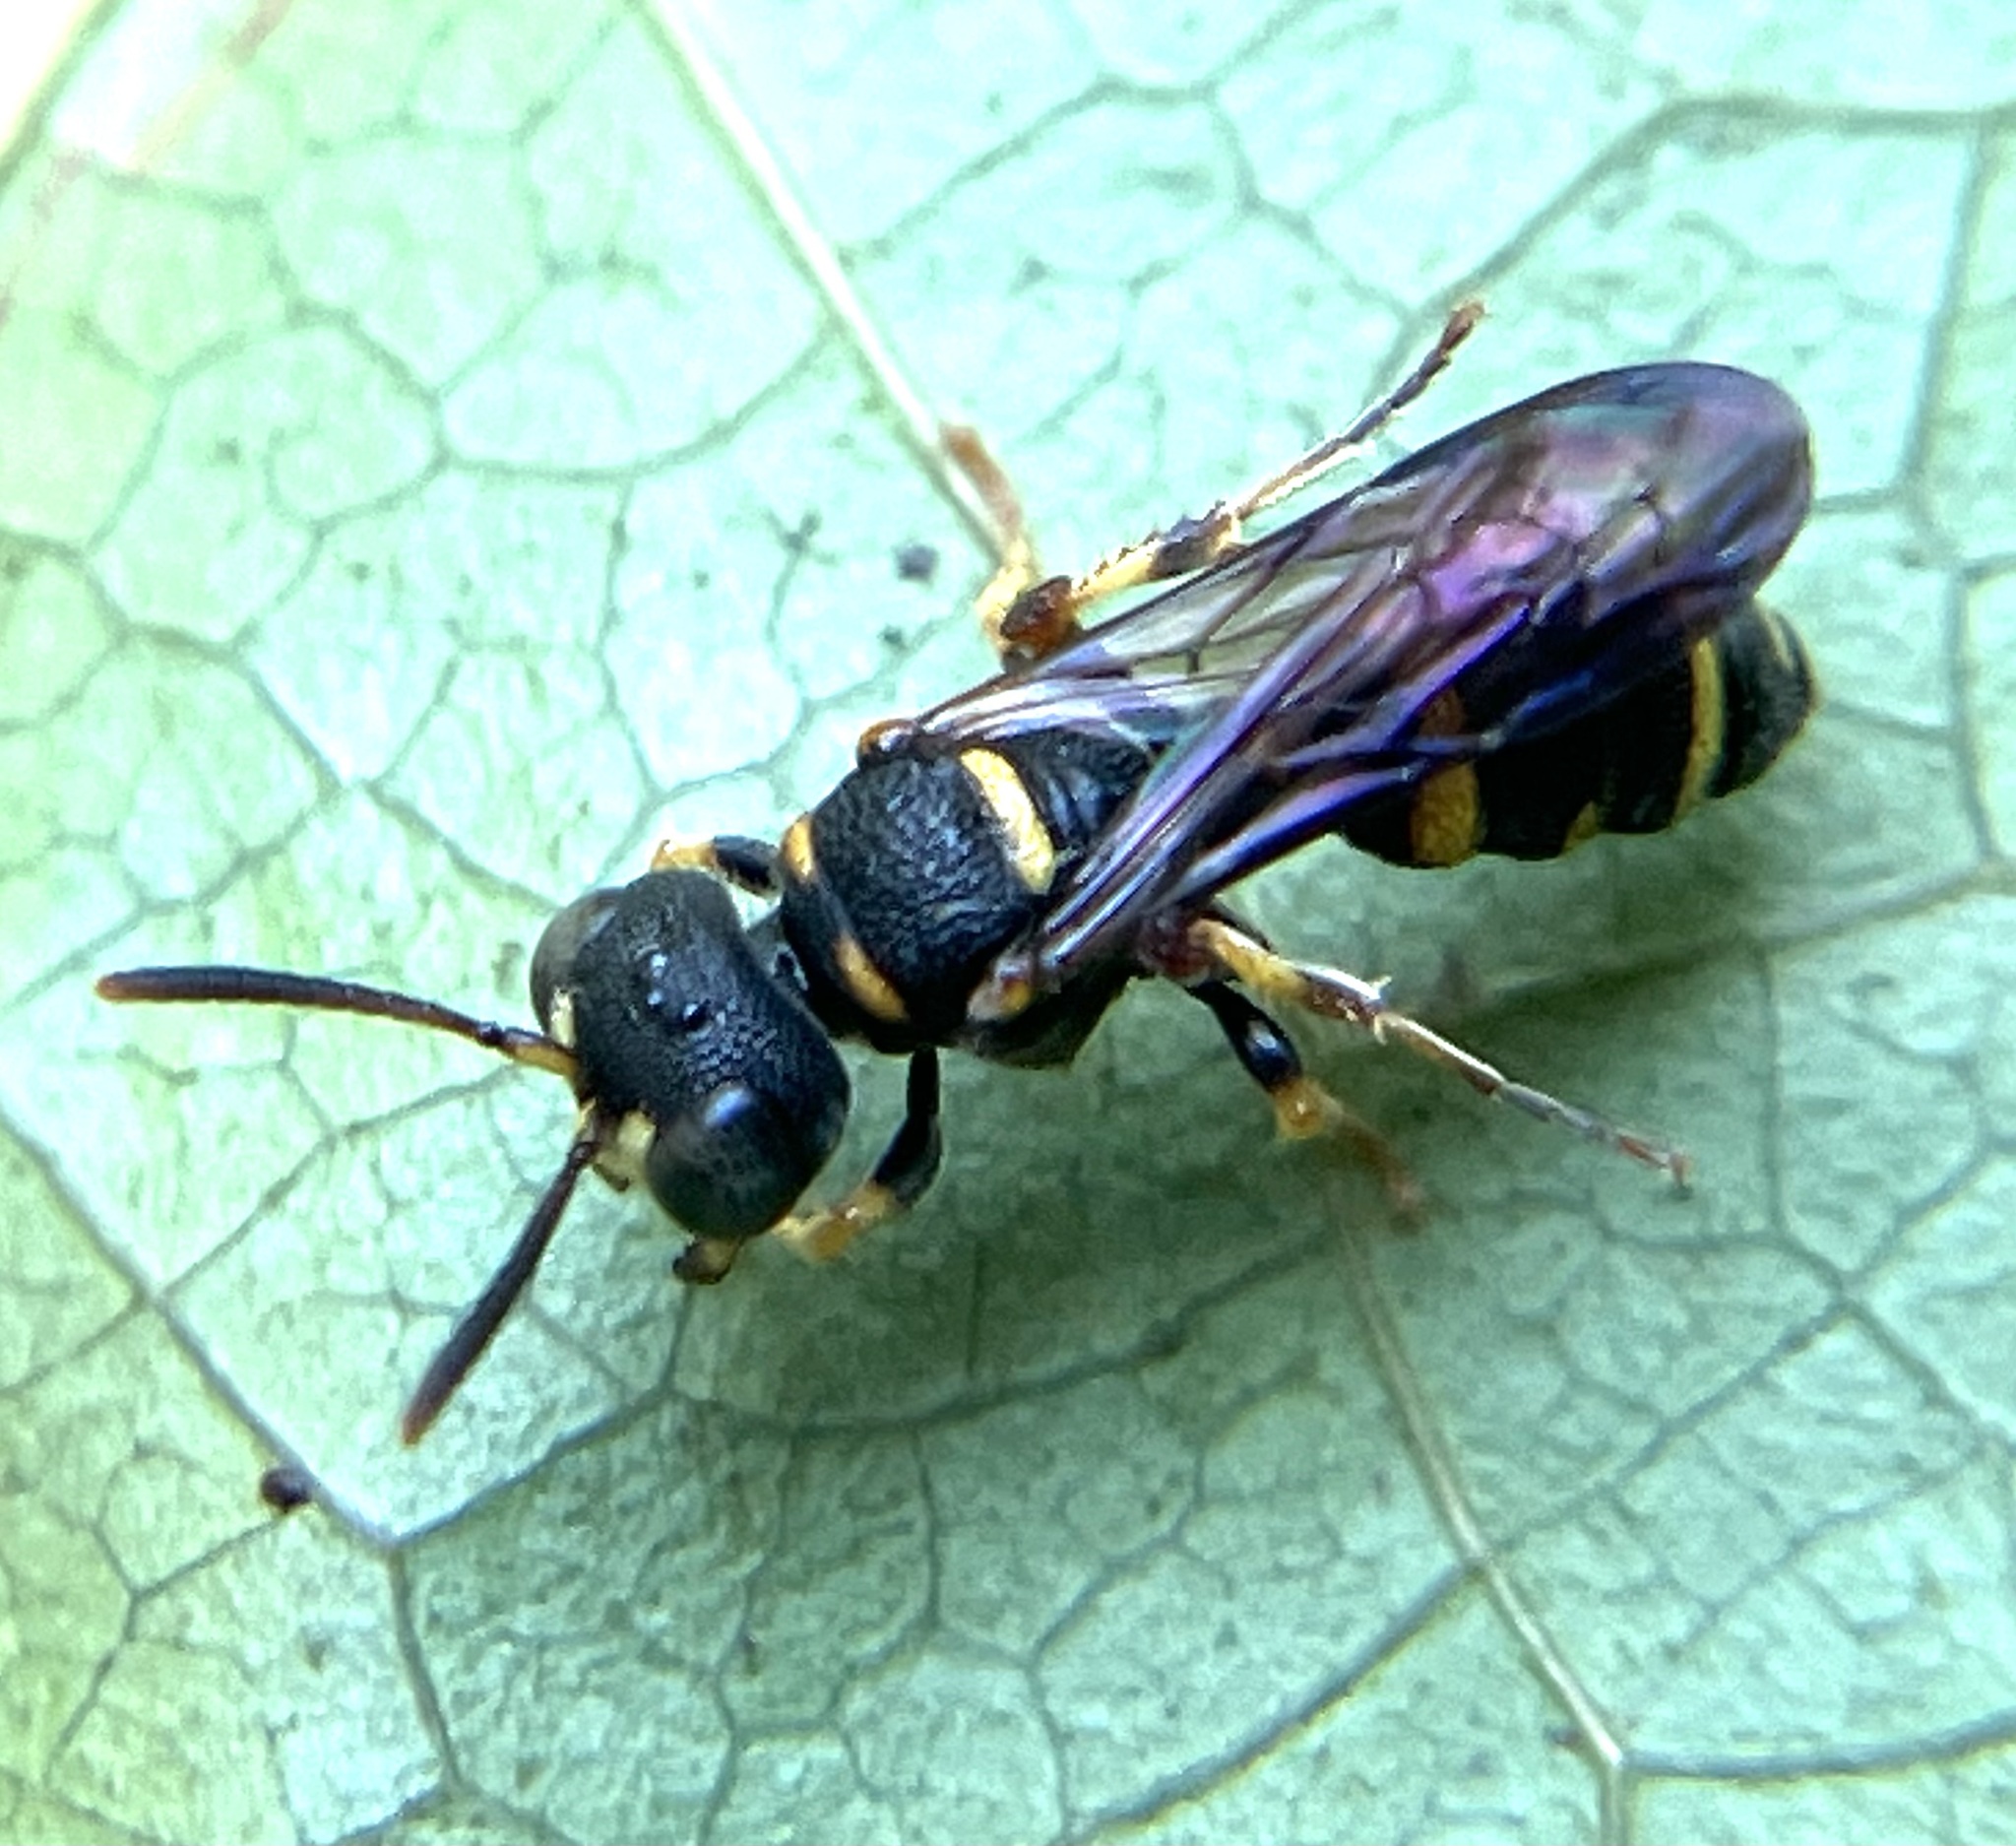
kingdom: Animalia
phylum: Arthropoda
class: Insecta
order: Hymenoptera
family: Crabronidae
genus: Cerceris
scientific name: Cerceris kennicottii
